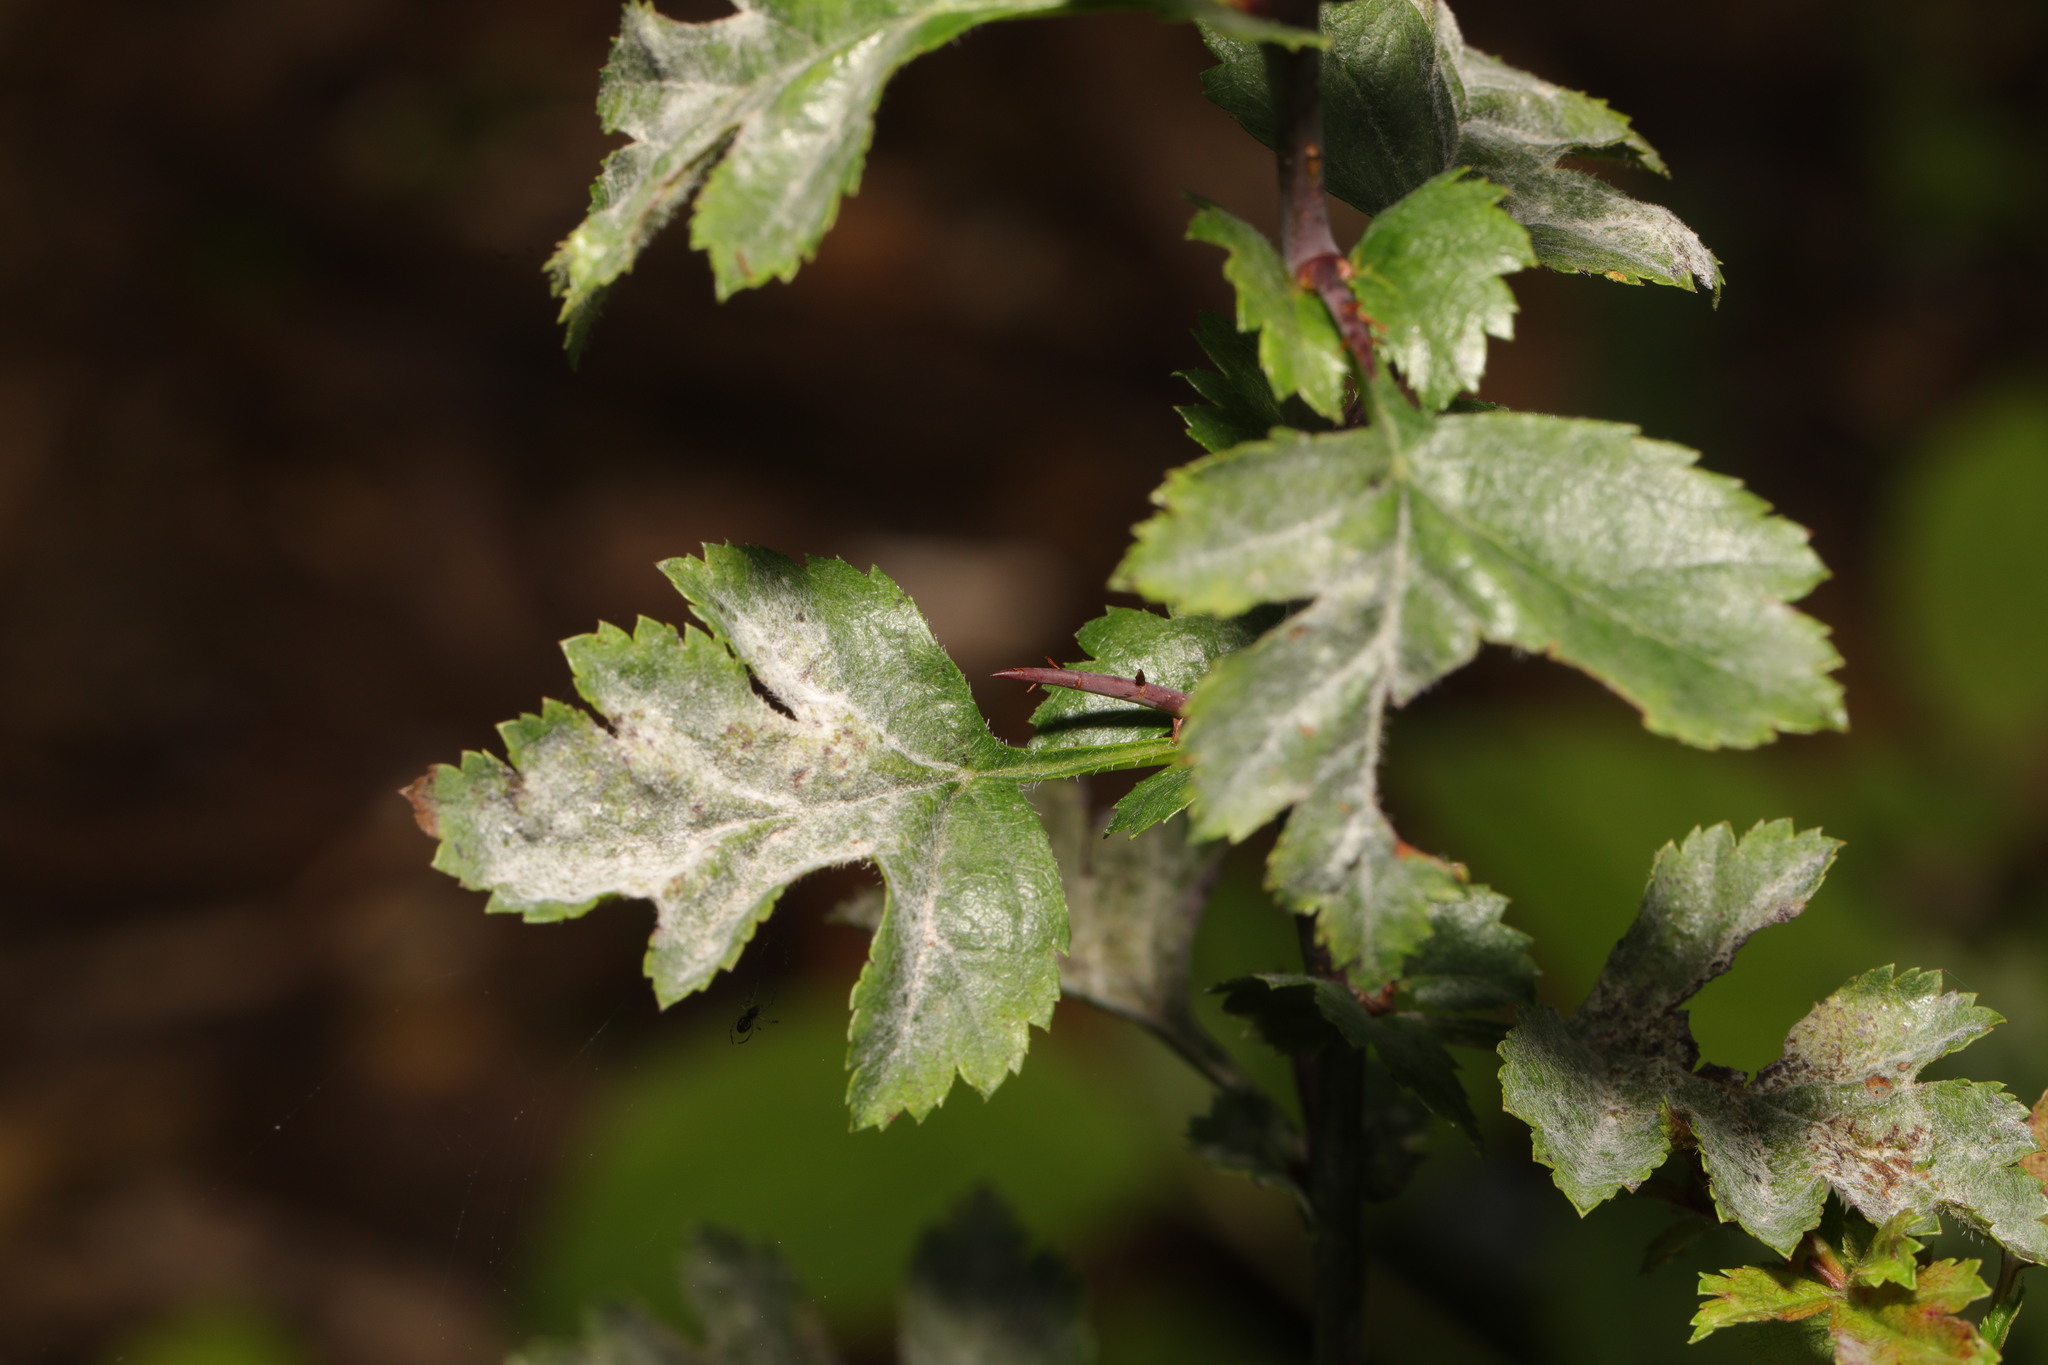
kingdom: Fungi
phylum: Ascomycota
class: Leotiomycetes
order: Helotiales
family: Erysiphaceae
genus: Podosphaera
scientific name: Podosphaera clandestina
